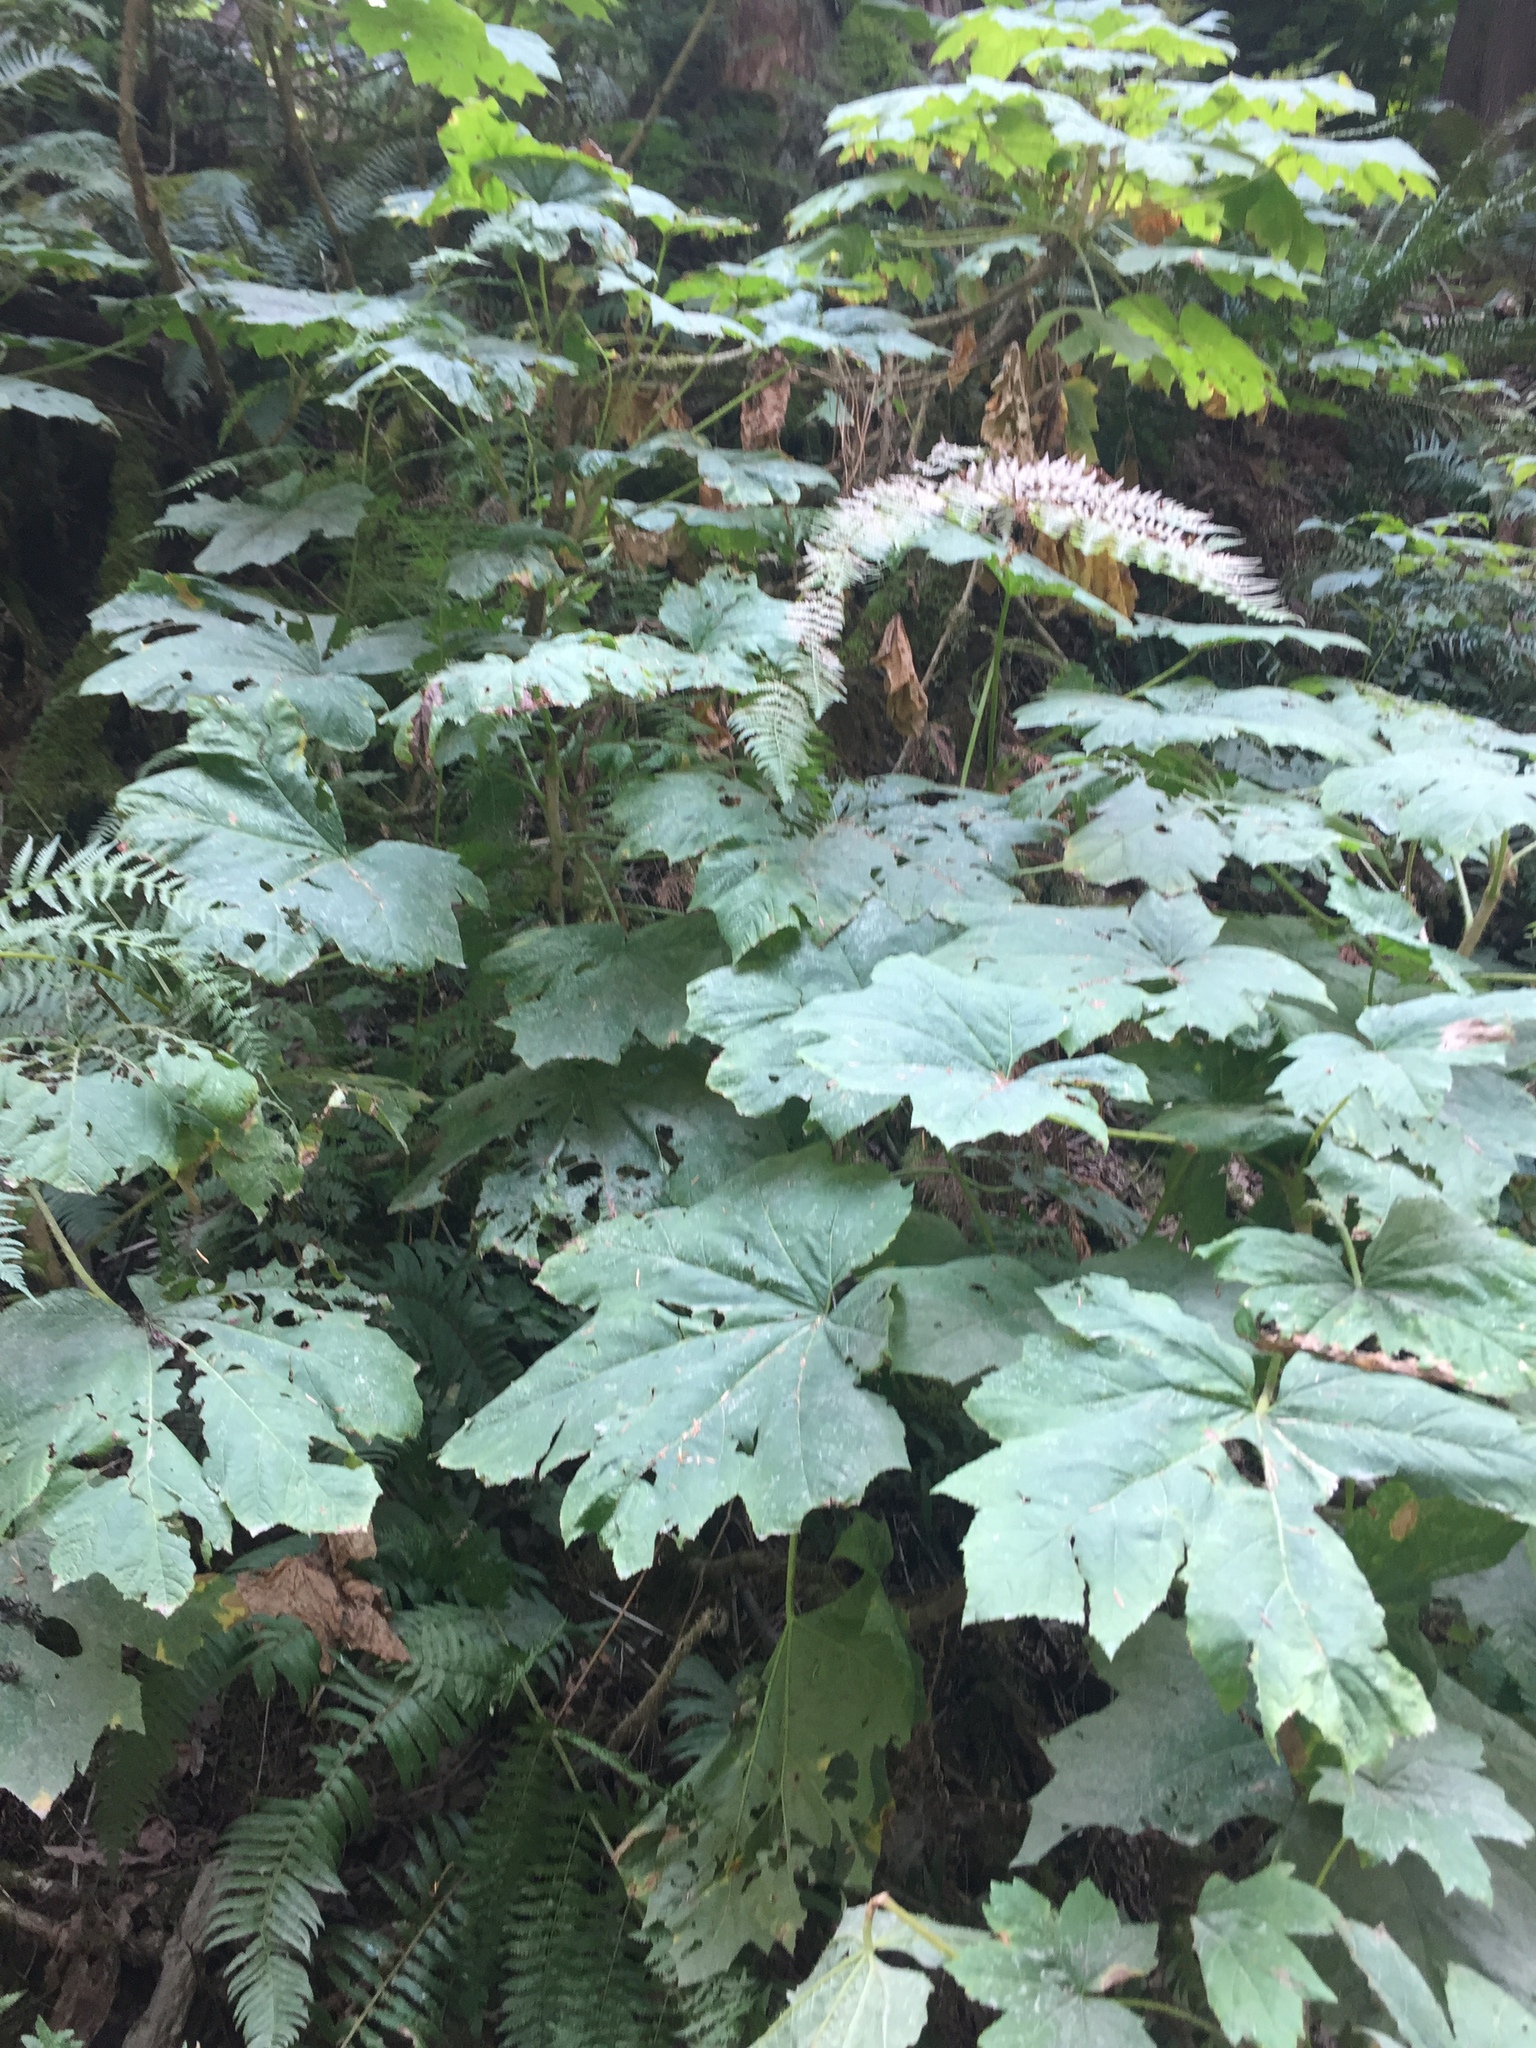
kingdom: Plantae
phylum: Tracheophyta
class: Magnoliopsida
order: Apiales
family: Araliaceae
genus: Oplopanax
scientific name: Oplopanax horridus
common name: Devil's walking-stick
